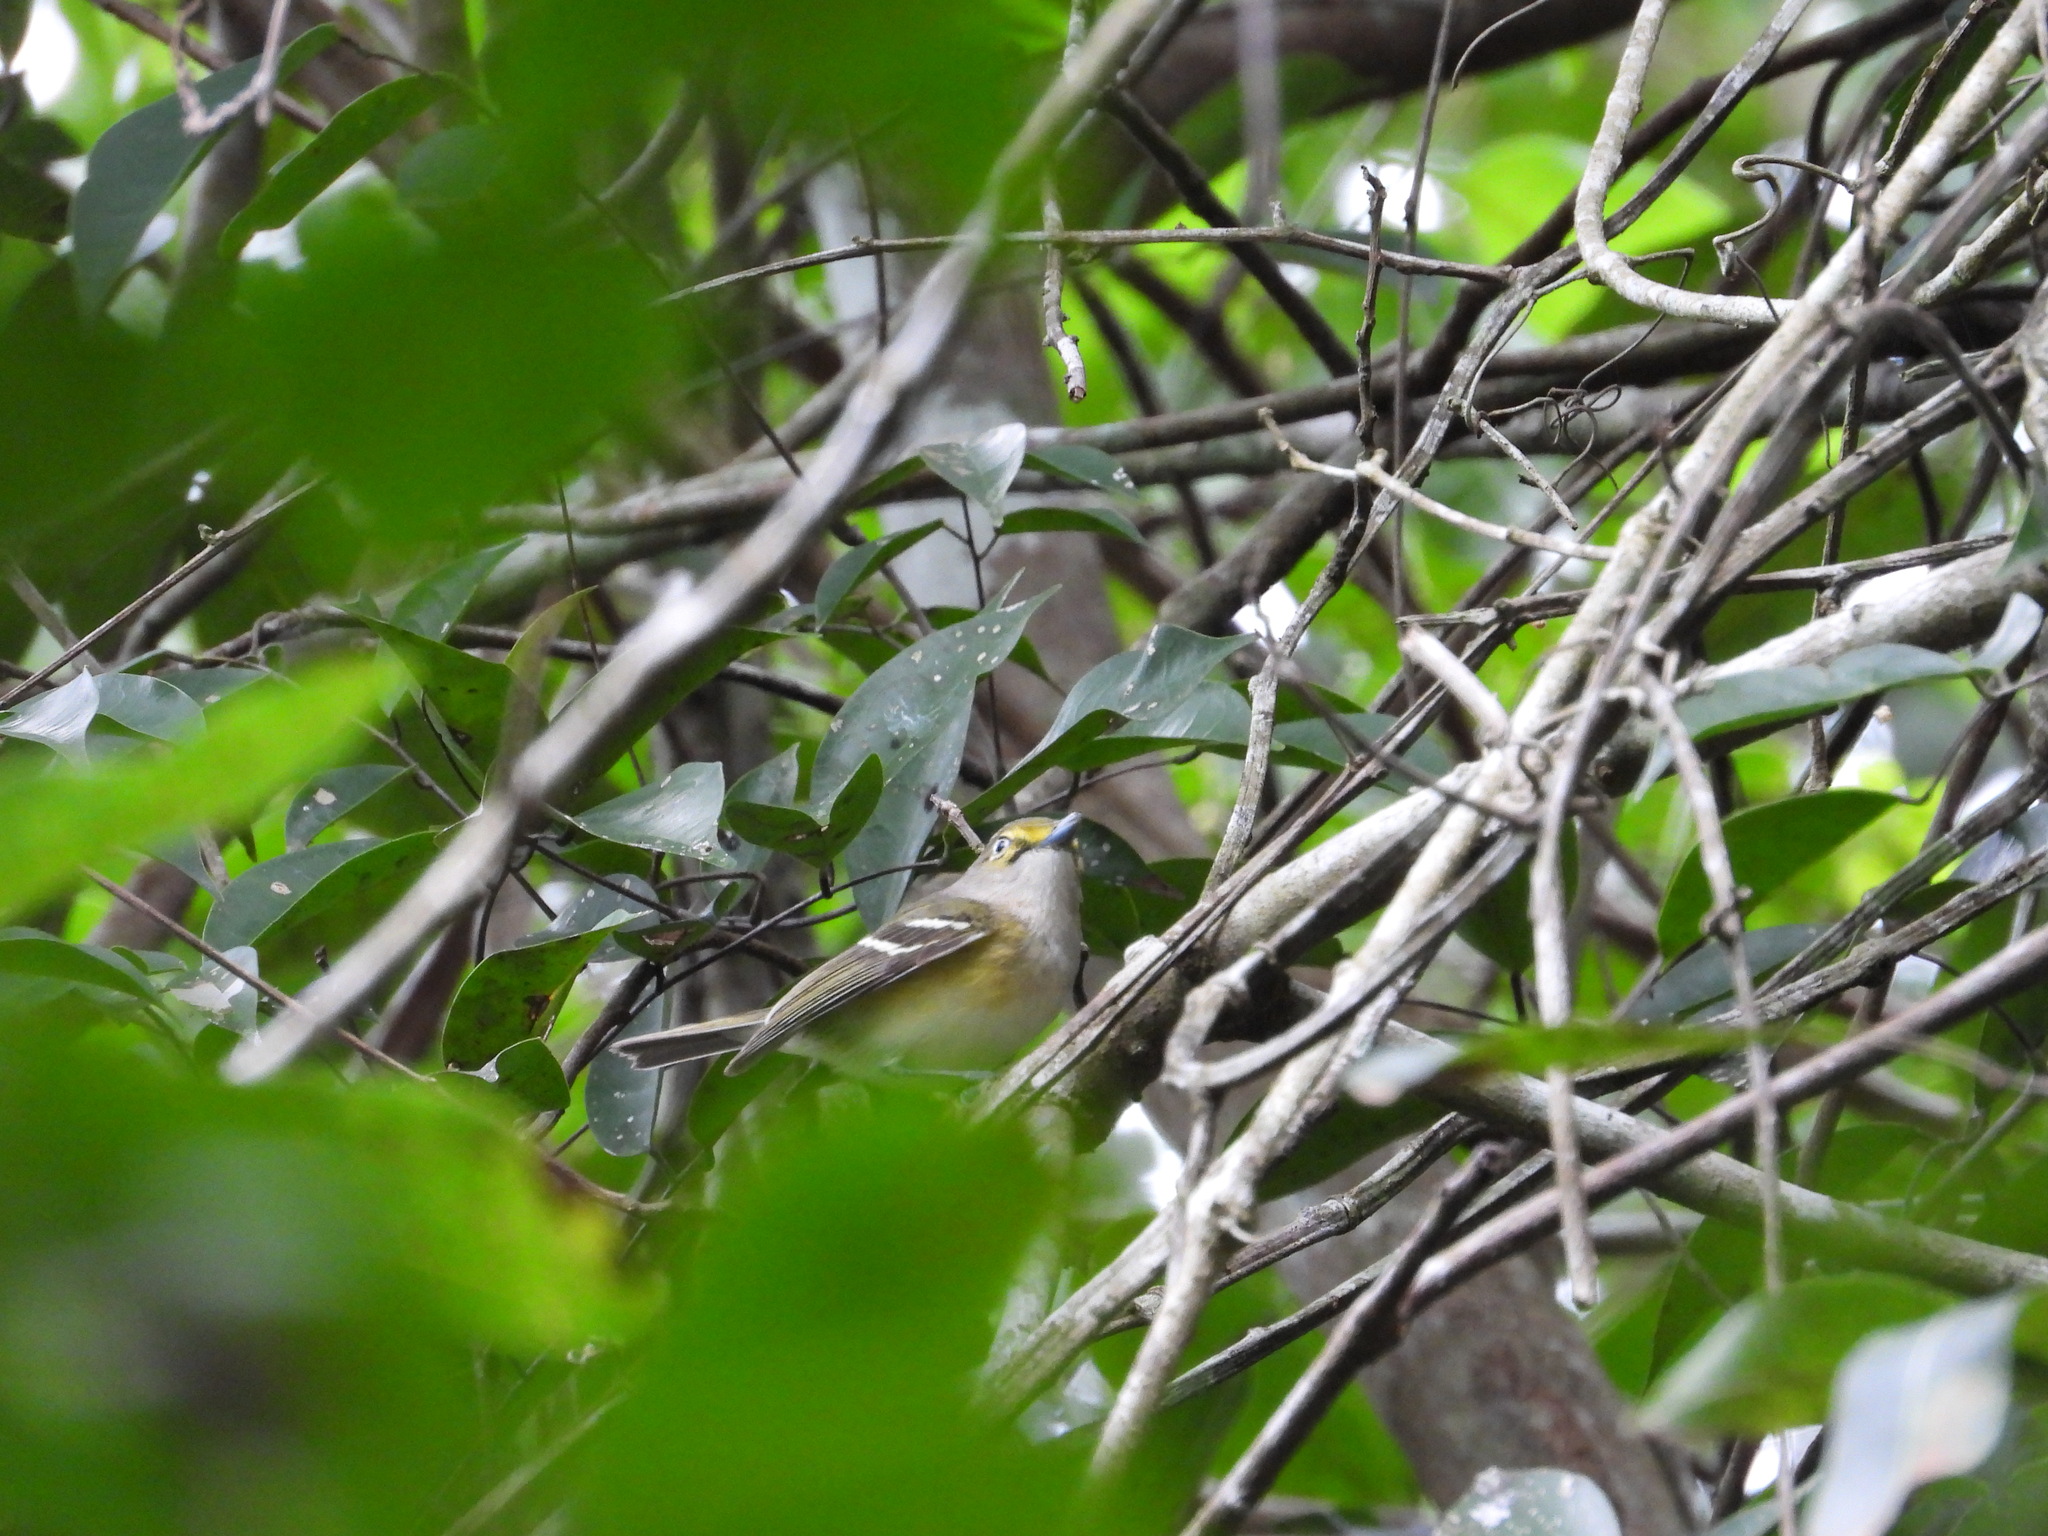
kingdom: Animalia
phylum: Chordata
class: Aves
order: Passeriformes
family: Vireonidae
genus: Vireo
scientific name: Vireo griseus
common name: White-eyed vireo
